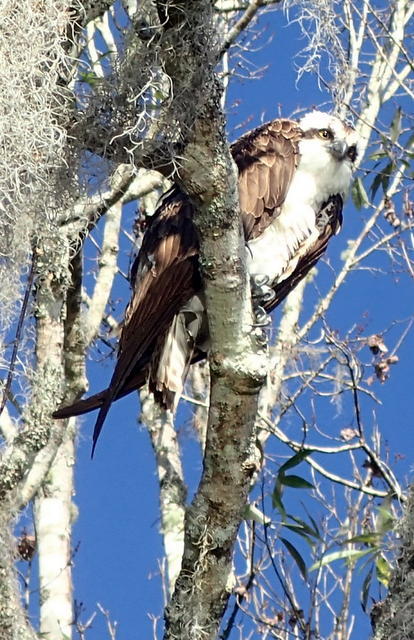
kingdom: Animalia
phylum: Chordata
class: Aves
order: Accipitriformes
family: Pandionidae
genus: Pandion
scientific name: Pandion haliaetus
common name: Osprey
